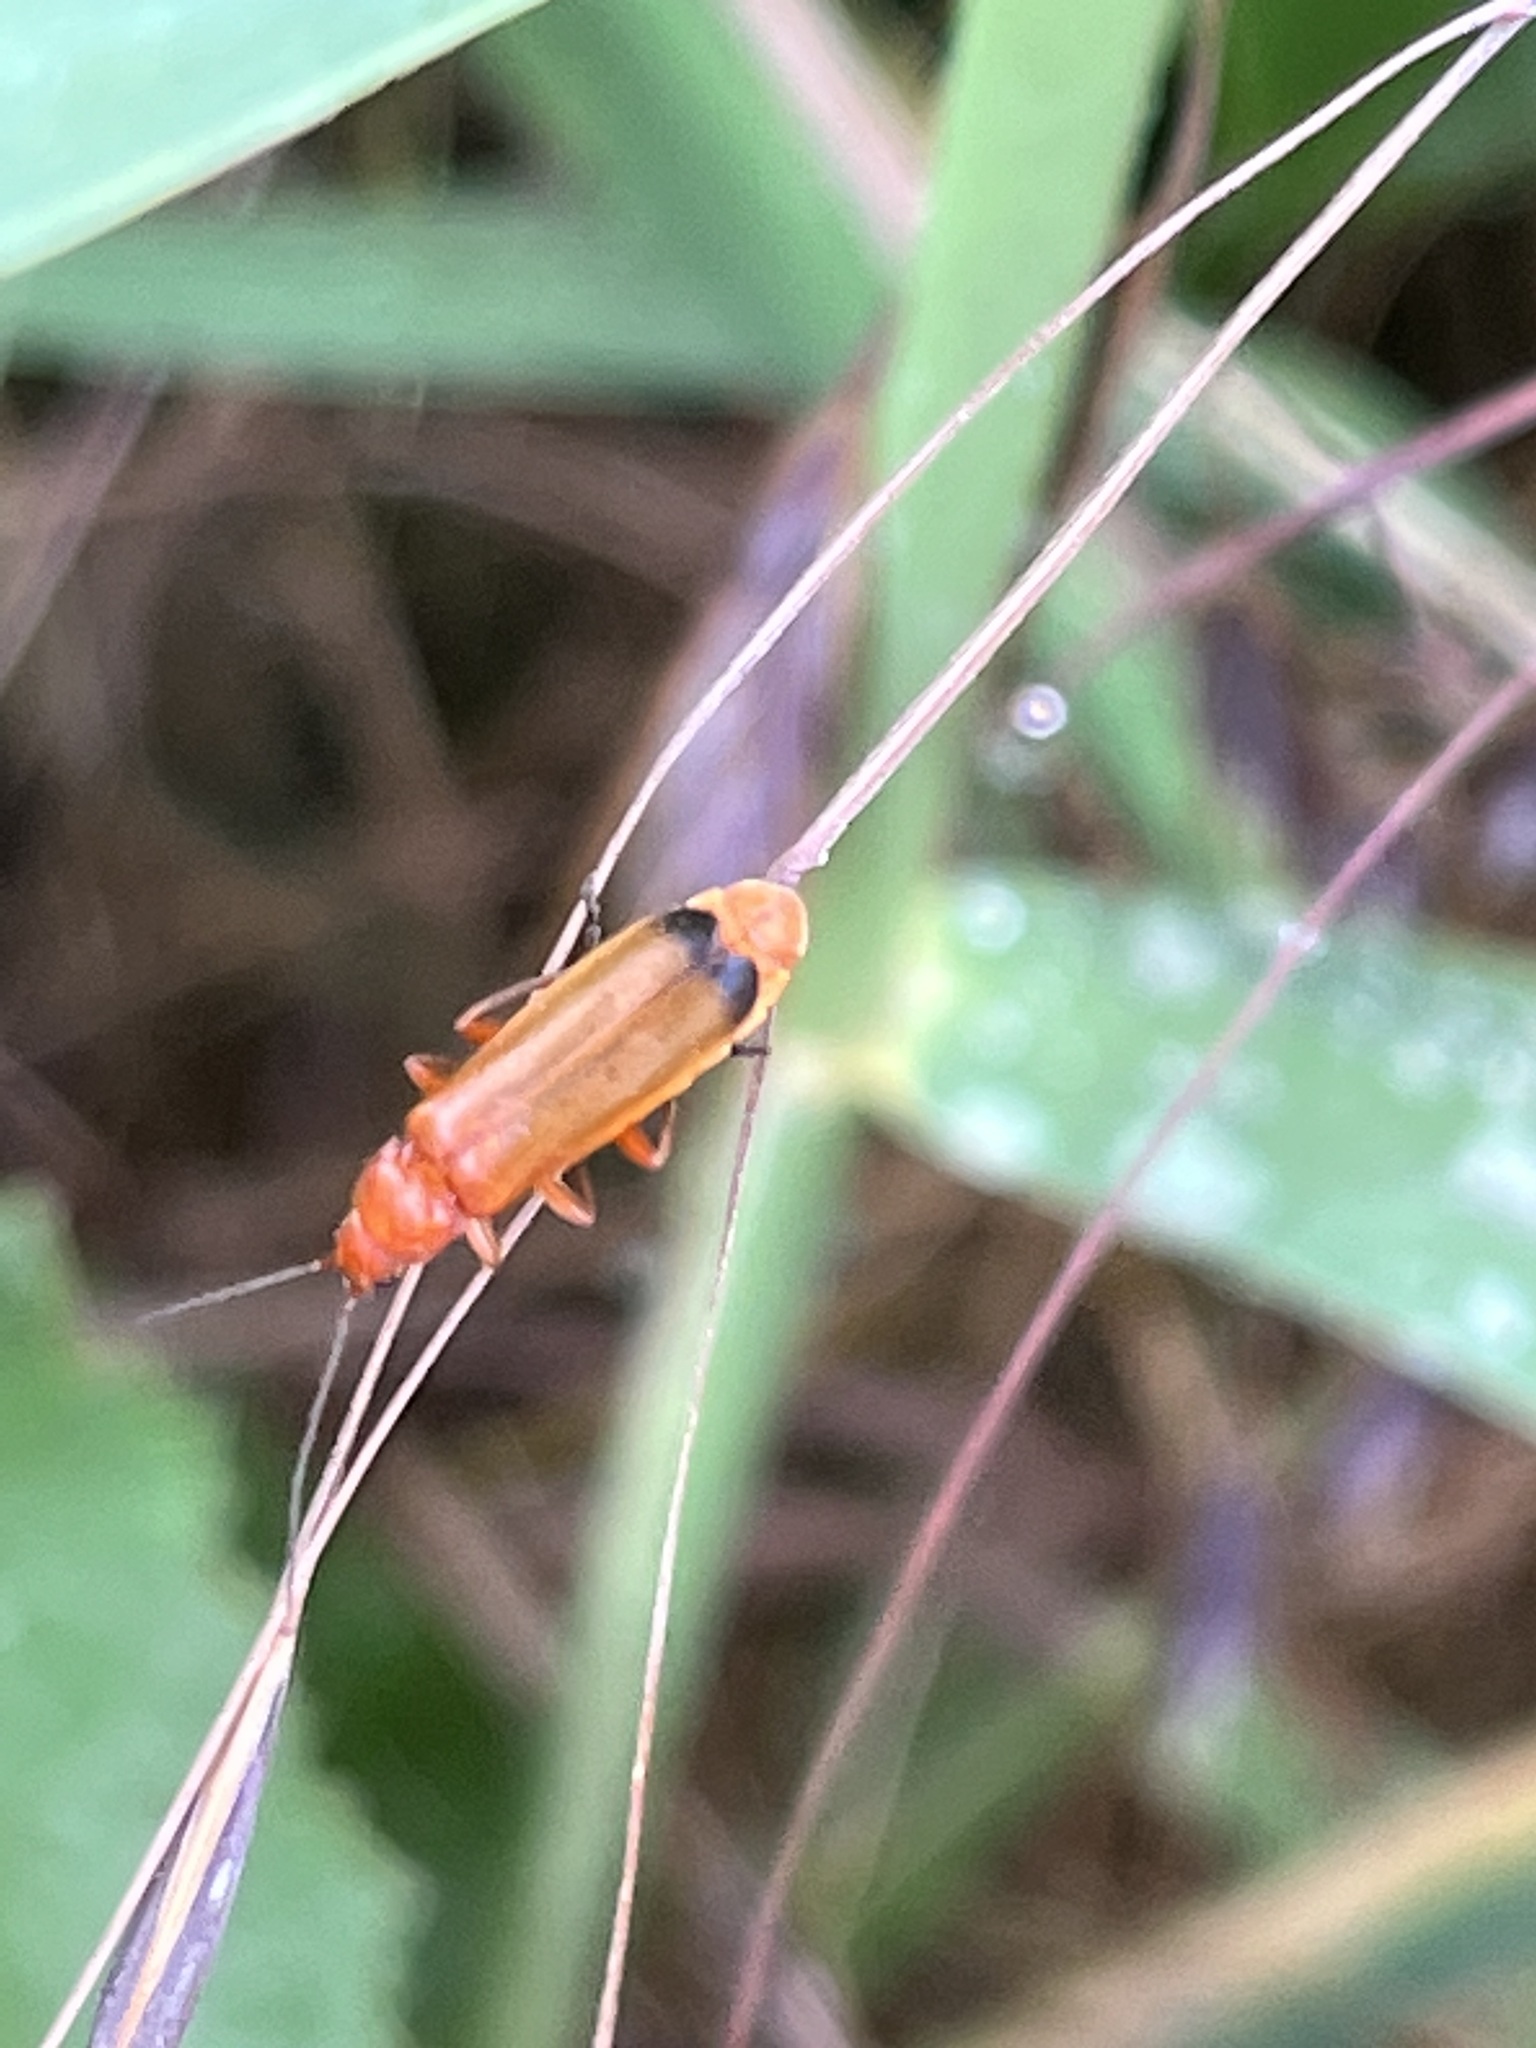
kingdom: Animalia
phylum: Arthropoda
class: Insecta
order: Coleoptera
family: Cantharidae
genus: Rhagonycha
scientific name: Rhagonycha fulva
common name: Common red soldier beetle
